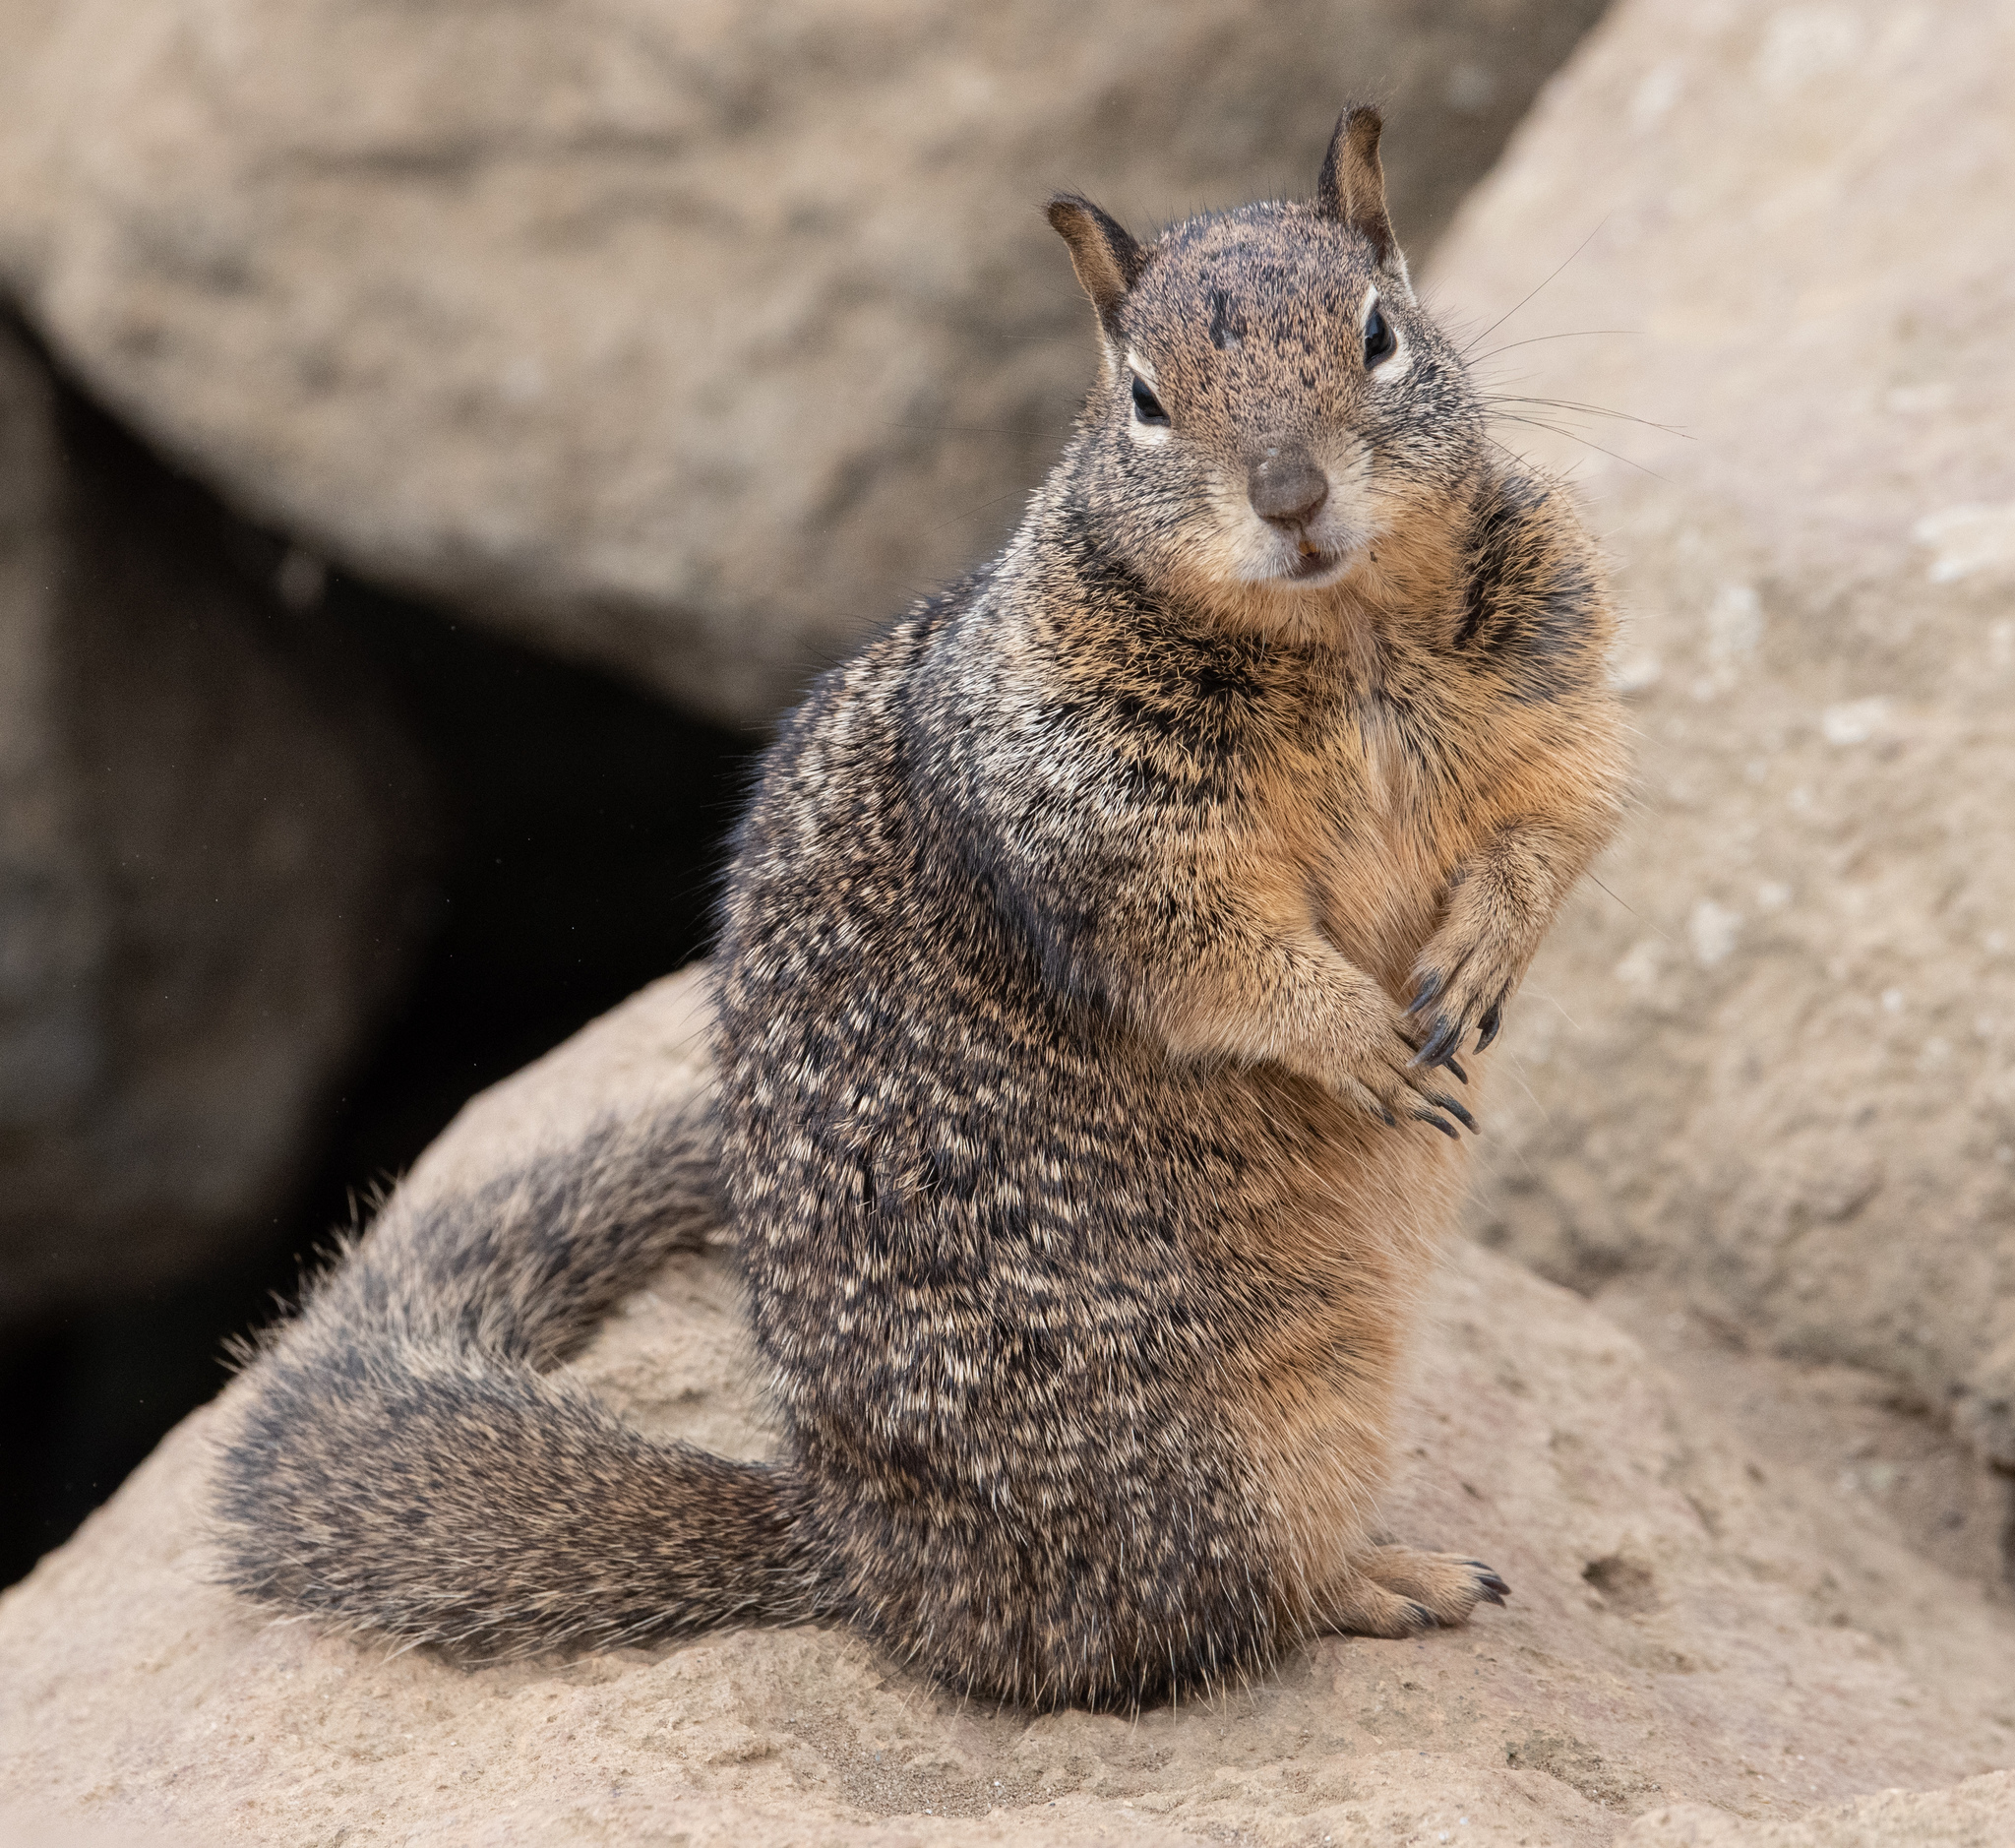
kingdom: Animalia
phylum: Chordata
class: Mammalia
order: Rodentia
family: Sciuridae
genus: Otospermophilus
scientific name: Otospermophilus beecheyi
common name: California ground squirrel
